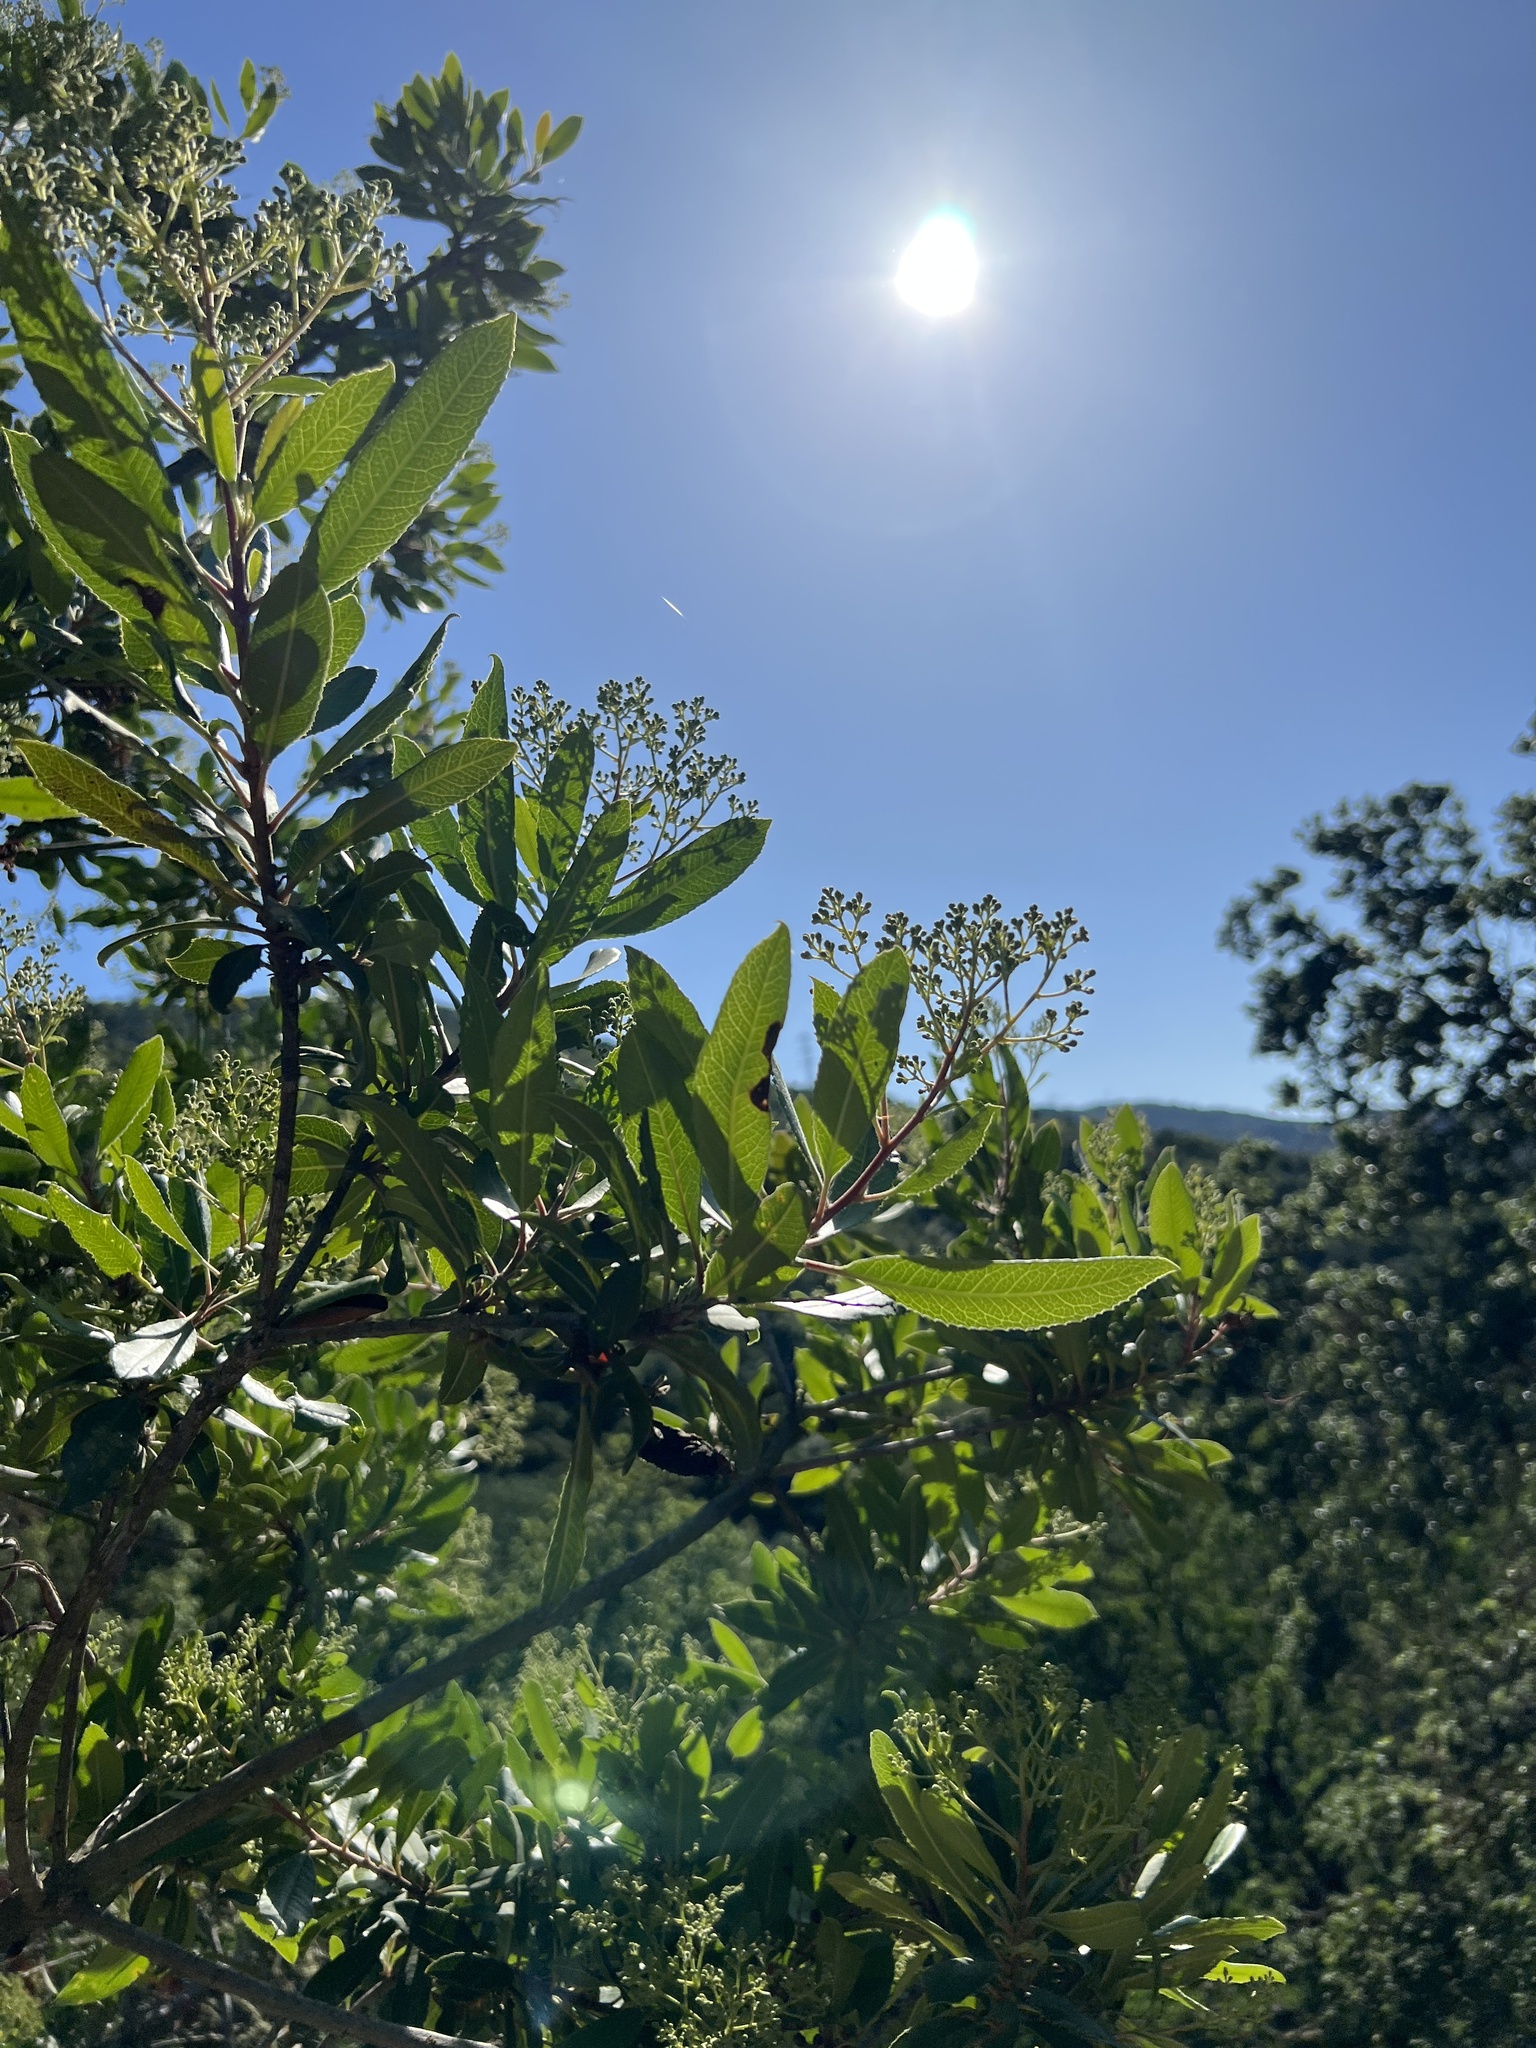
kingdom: Plantae
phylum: Tracheophyta
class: Magnoliopsida
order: Rosales
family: Rosaceae
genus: Heteromeles
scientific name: Heteromeles arbutifolia
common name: California-holly
